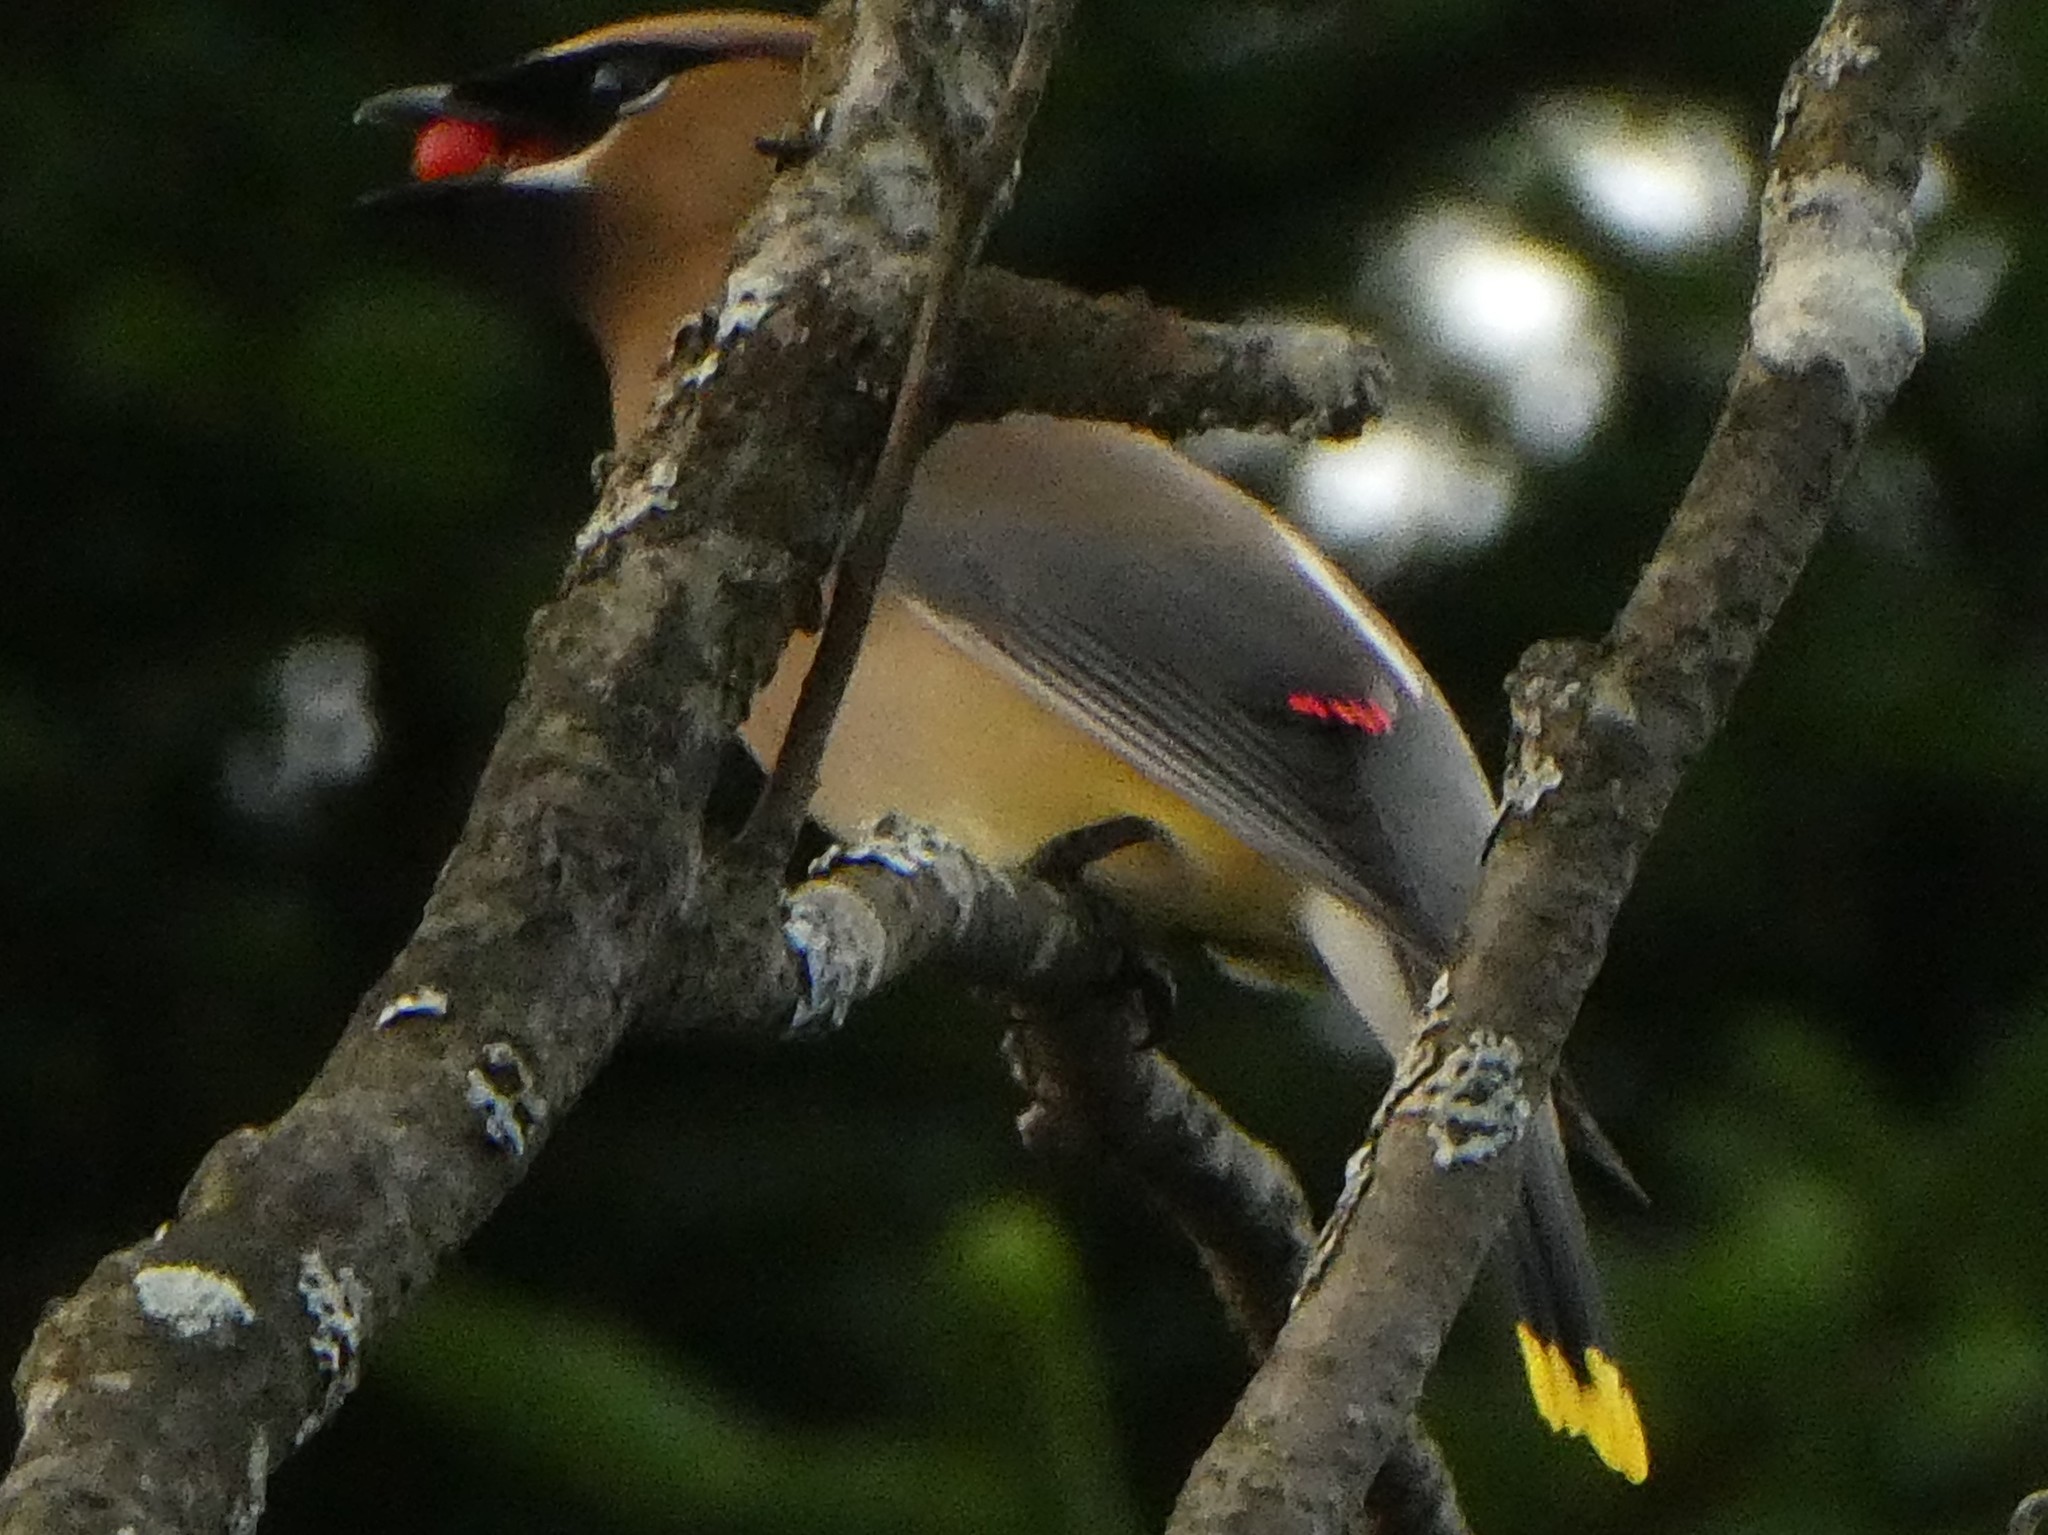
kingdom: Animalia
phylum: Chordata
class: Aves
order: Passeriformes
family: Bombycillidae
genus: Bombycilla
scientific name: Bombycilla cedrorum
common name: Cedar waxwing
